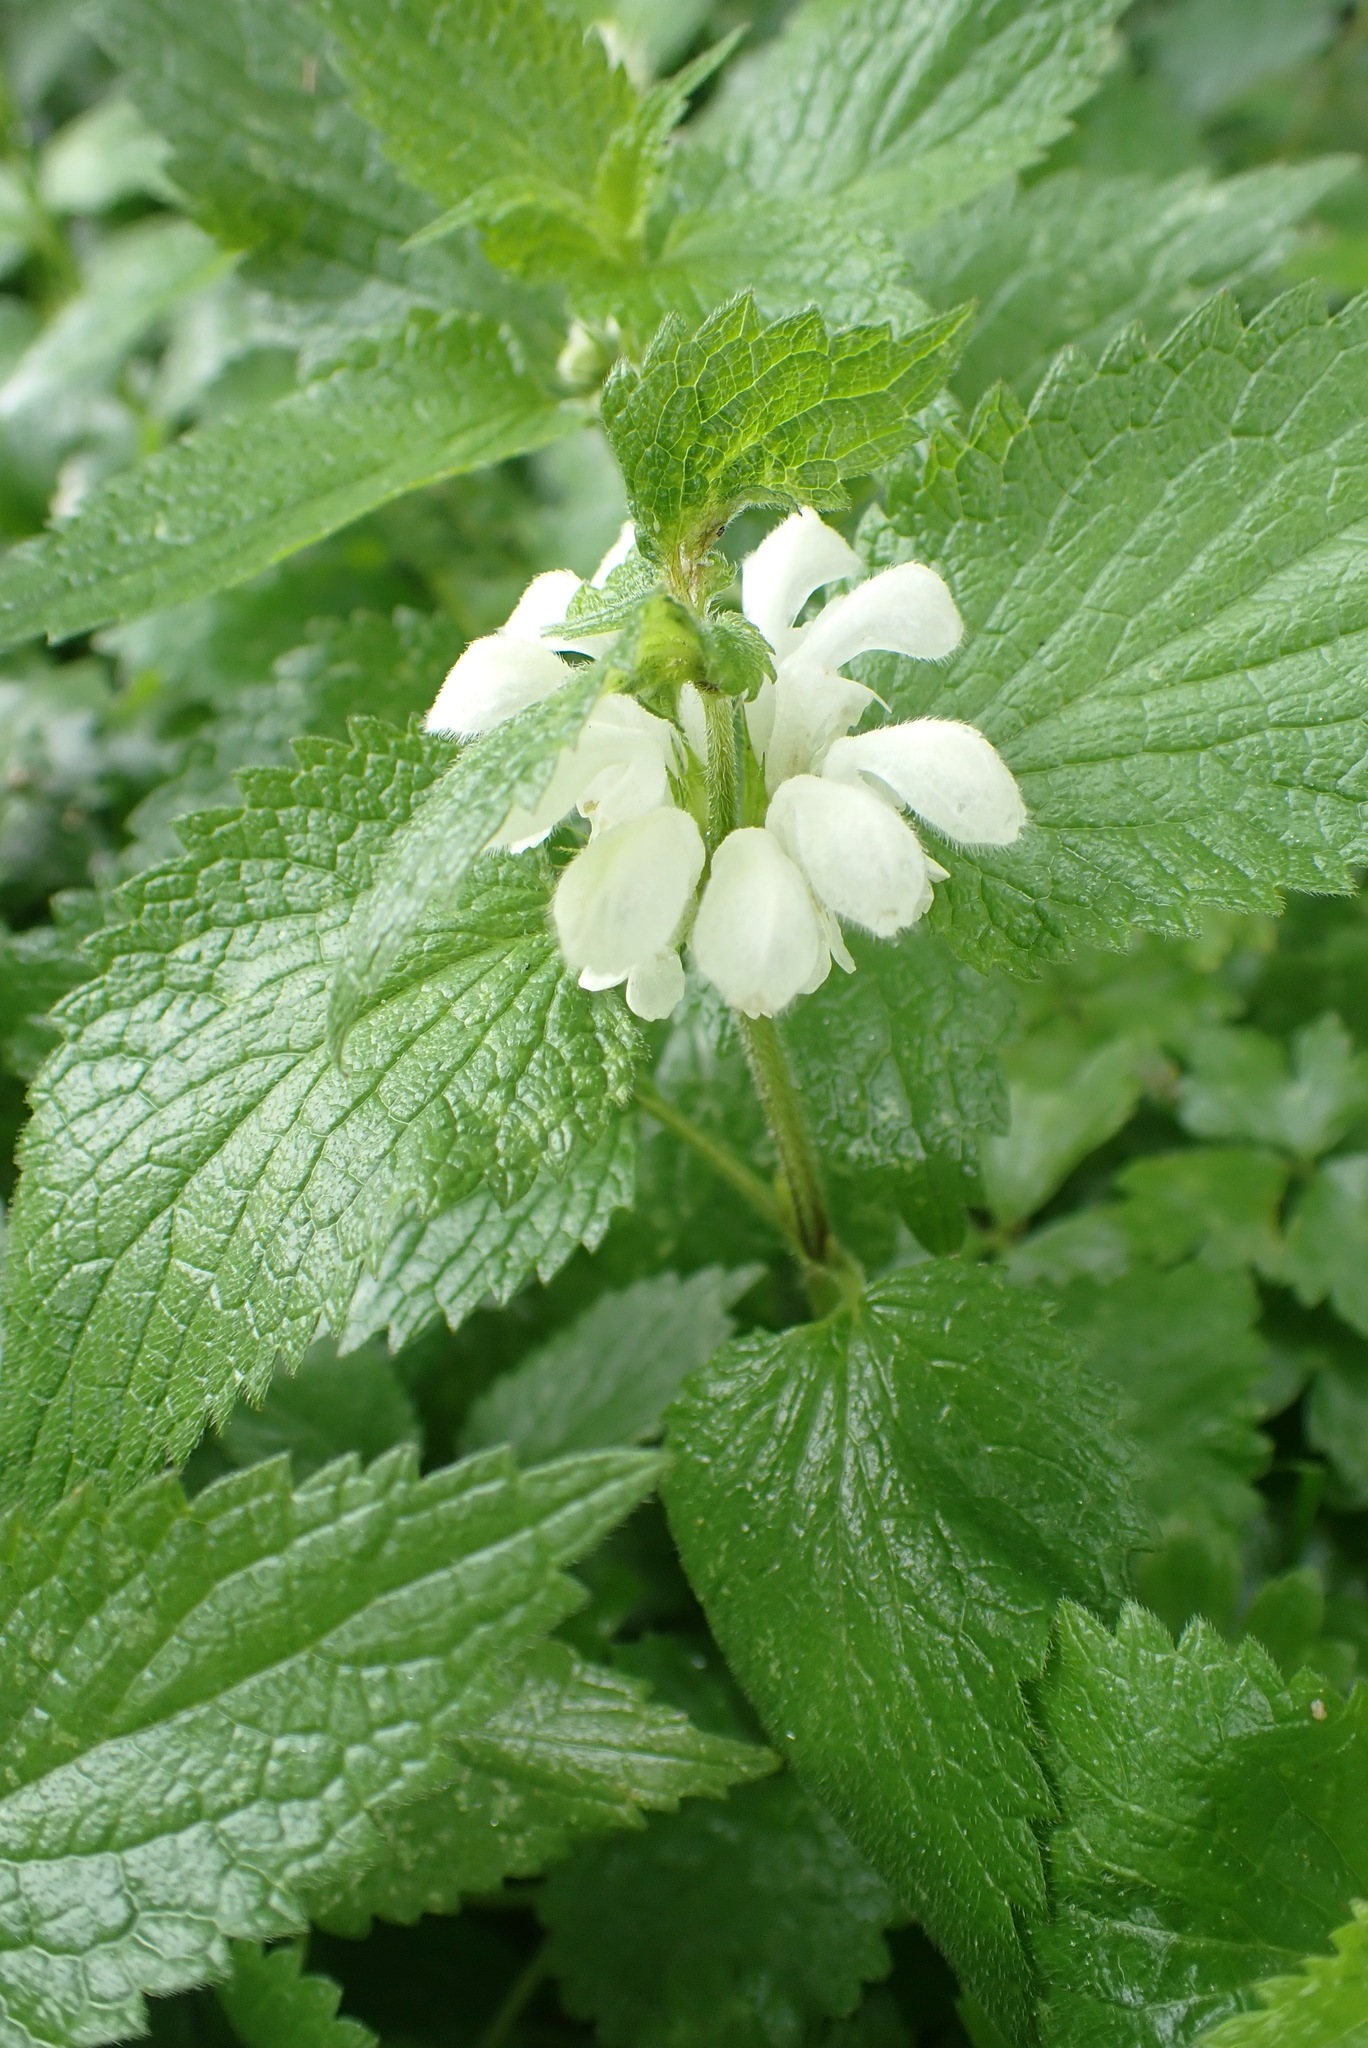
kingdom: Plantae
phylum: Tracheophyta
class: Magnoliopsida
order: Lamiales
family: Lamiaceae
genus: Lamium
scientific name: Lamium album
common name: White dead-nettle
